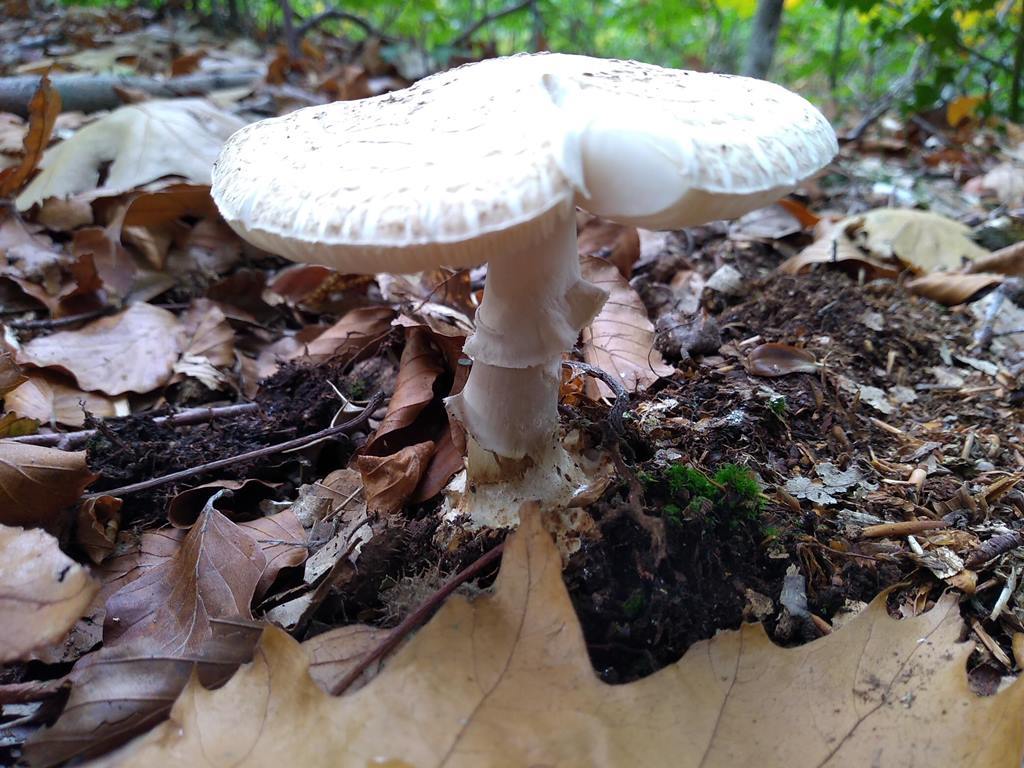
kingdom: Fungi
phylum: Basidiomycota
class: Agaricomycetes
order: Agaricales
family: Amanitaceae
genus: Amanita
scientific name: Amanita citrina
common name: False death-cap
